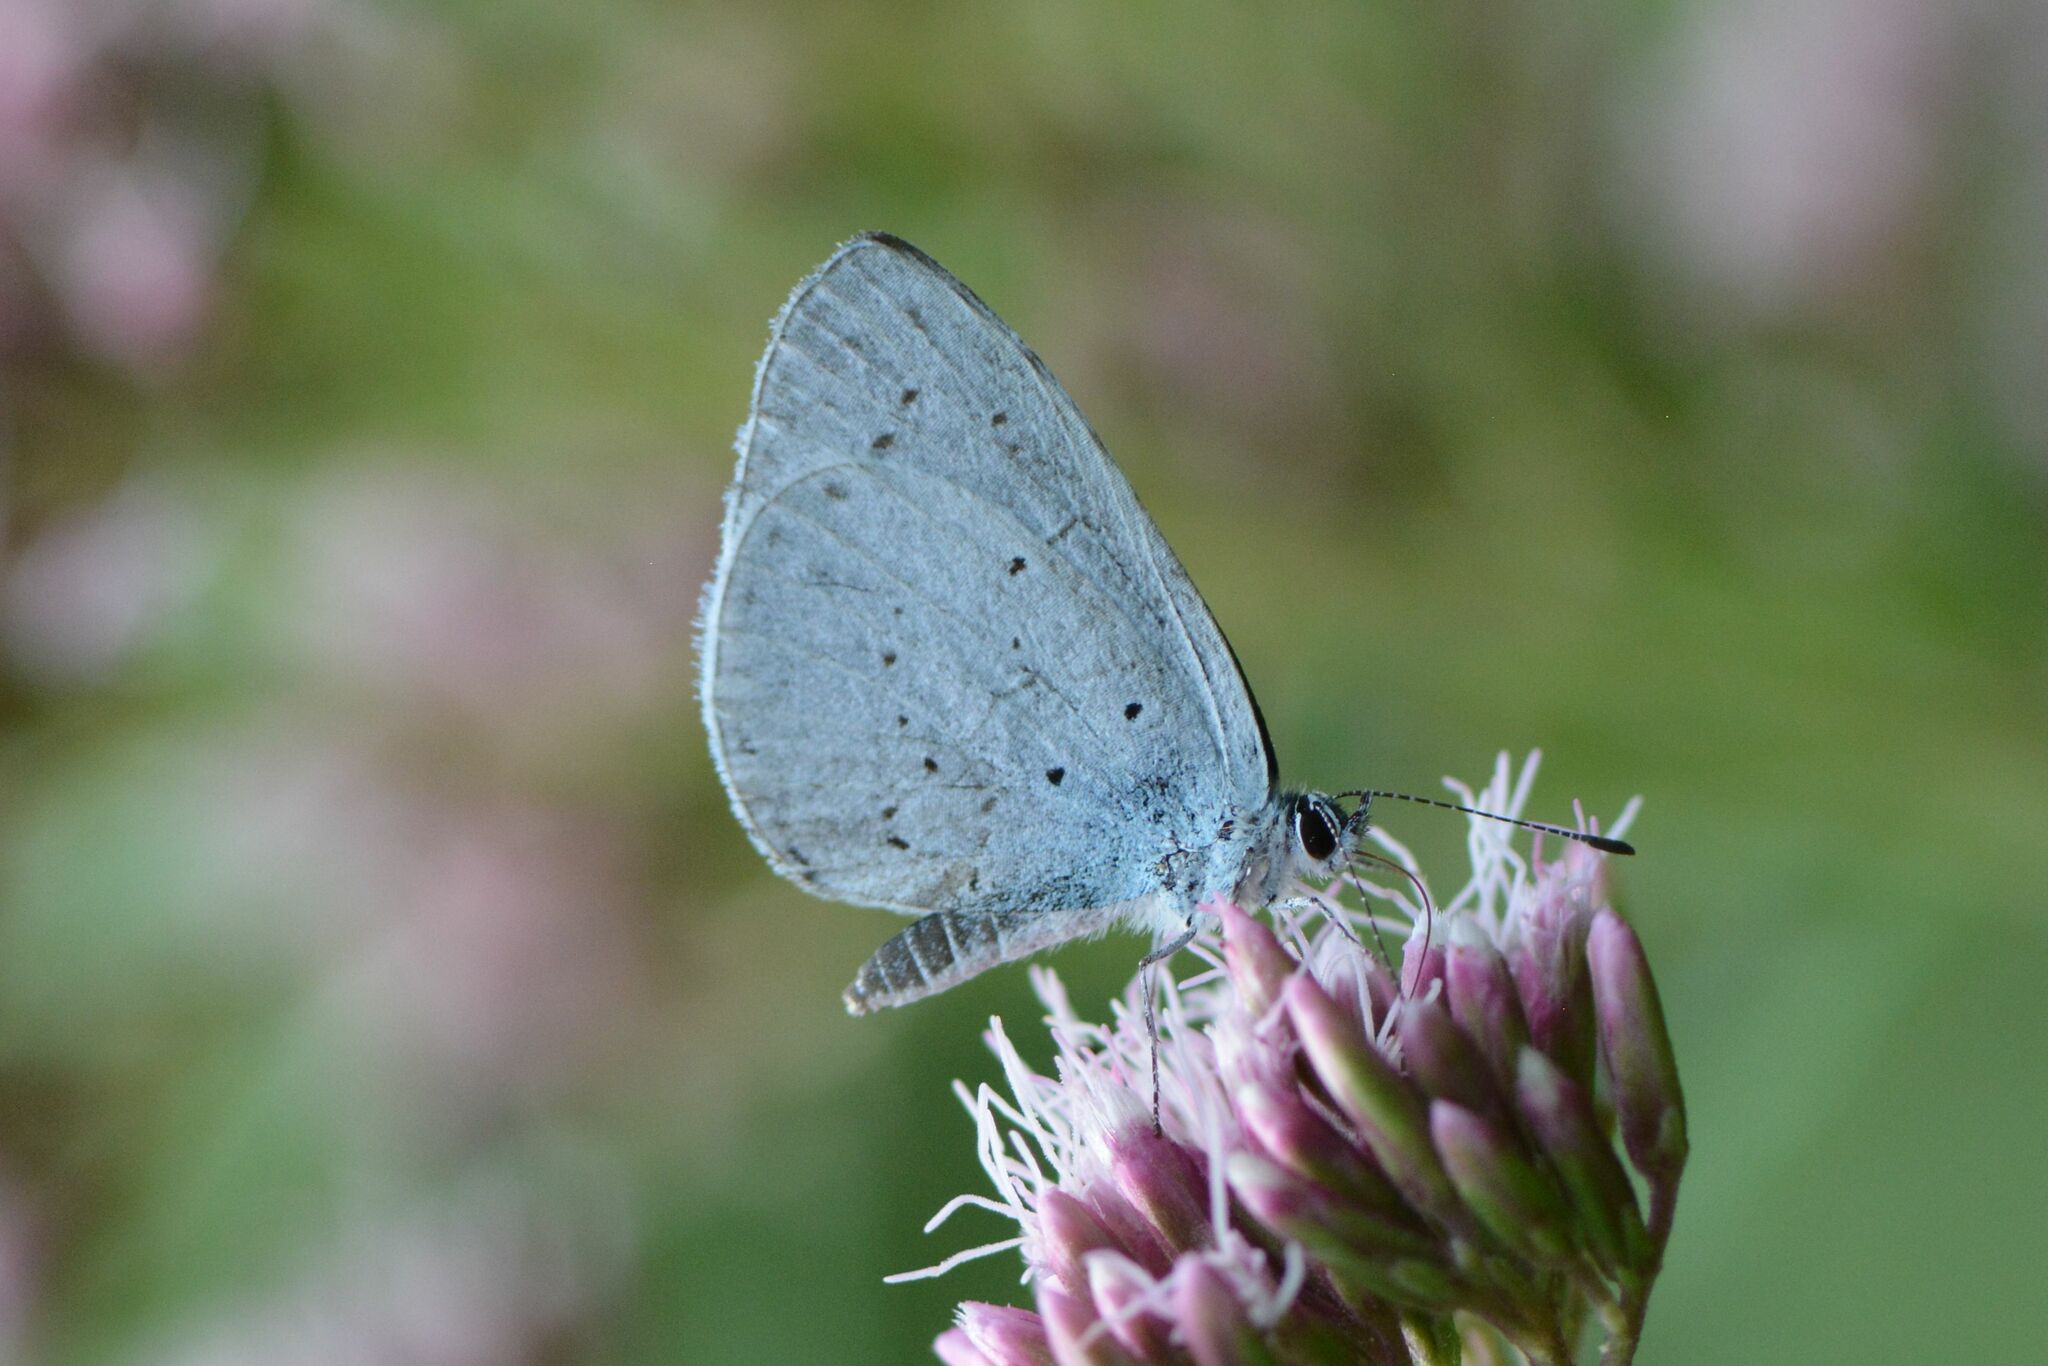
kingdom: Animalia
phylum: Arthropoda
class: Insecta
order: Lepidoptera
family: Lycaenidae
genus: Celastrina
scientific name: Celastrina argiolus
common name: Holly blue
